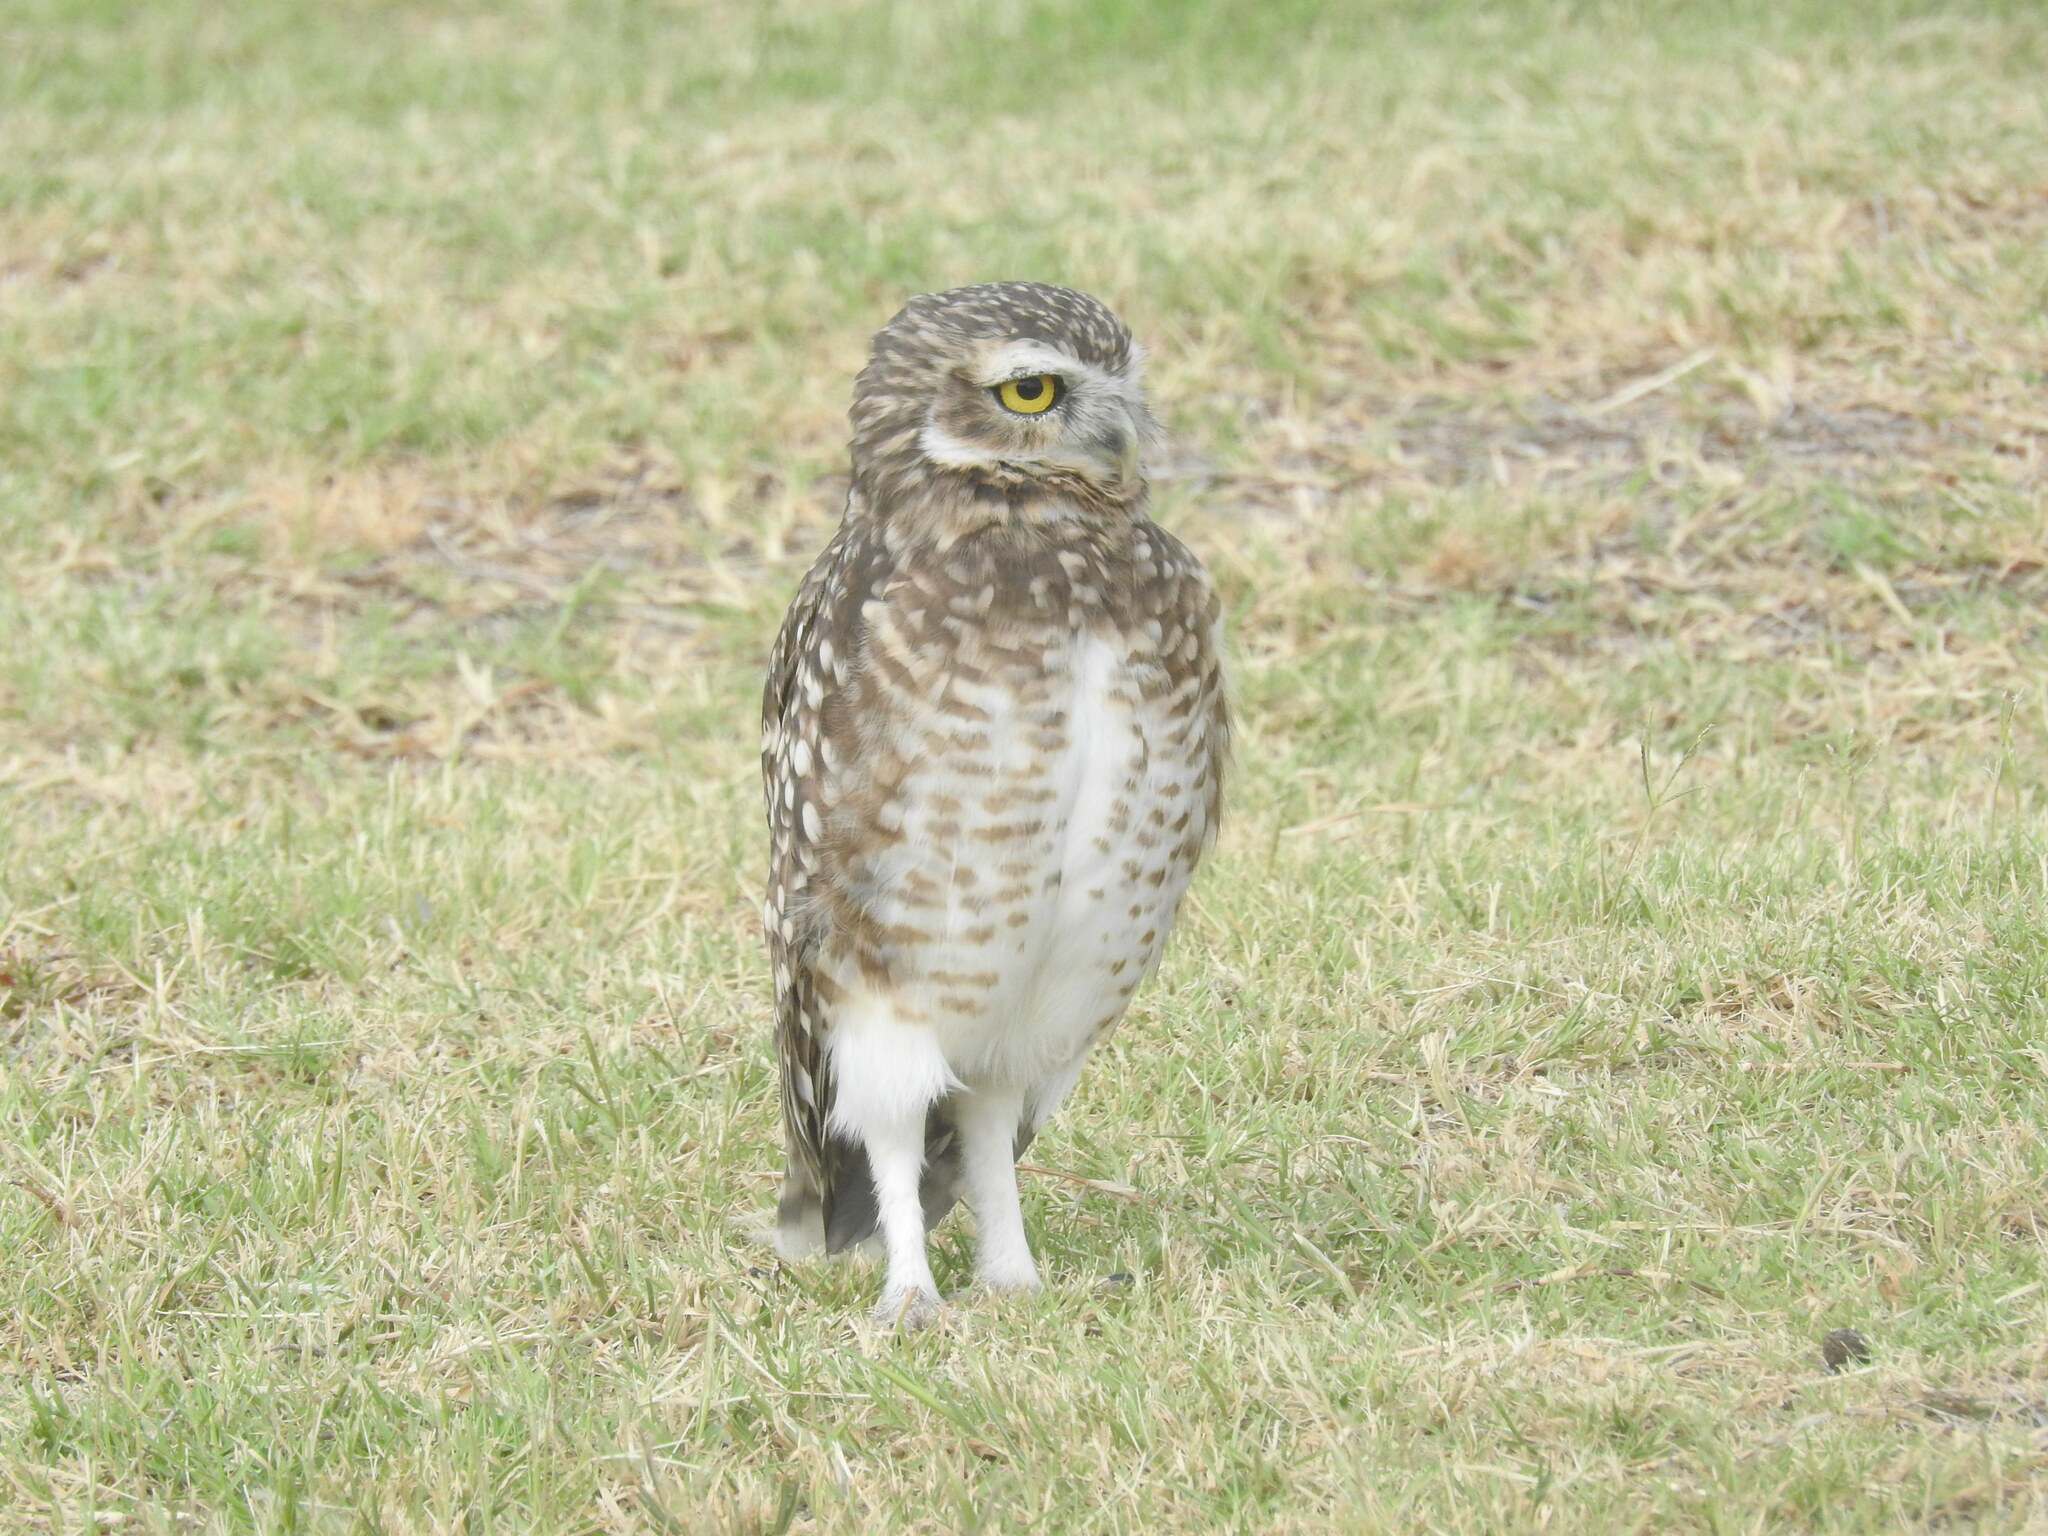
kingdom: Animalia
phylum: Chordata
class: Aves
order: Strigiformes
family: Strigidae
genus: Athene
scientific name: Athene cunicularia
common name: Burrowing owl
